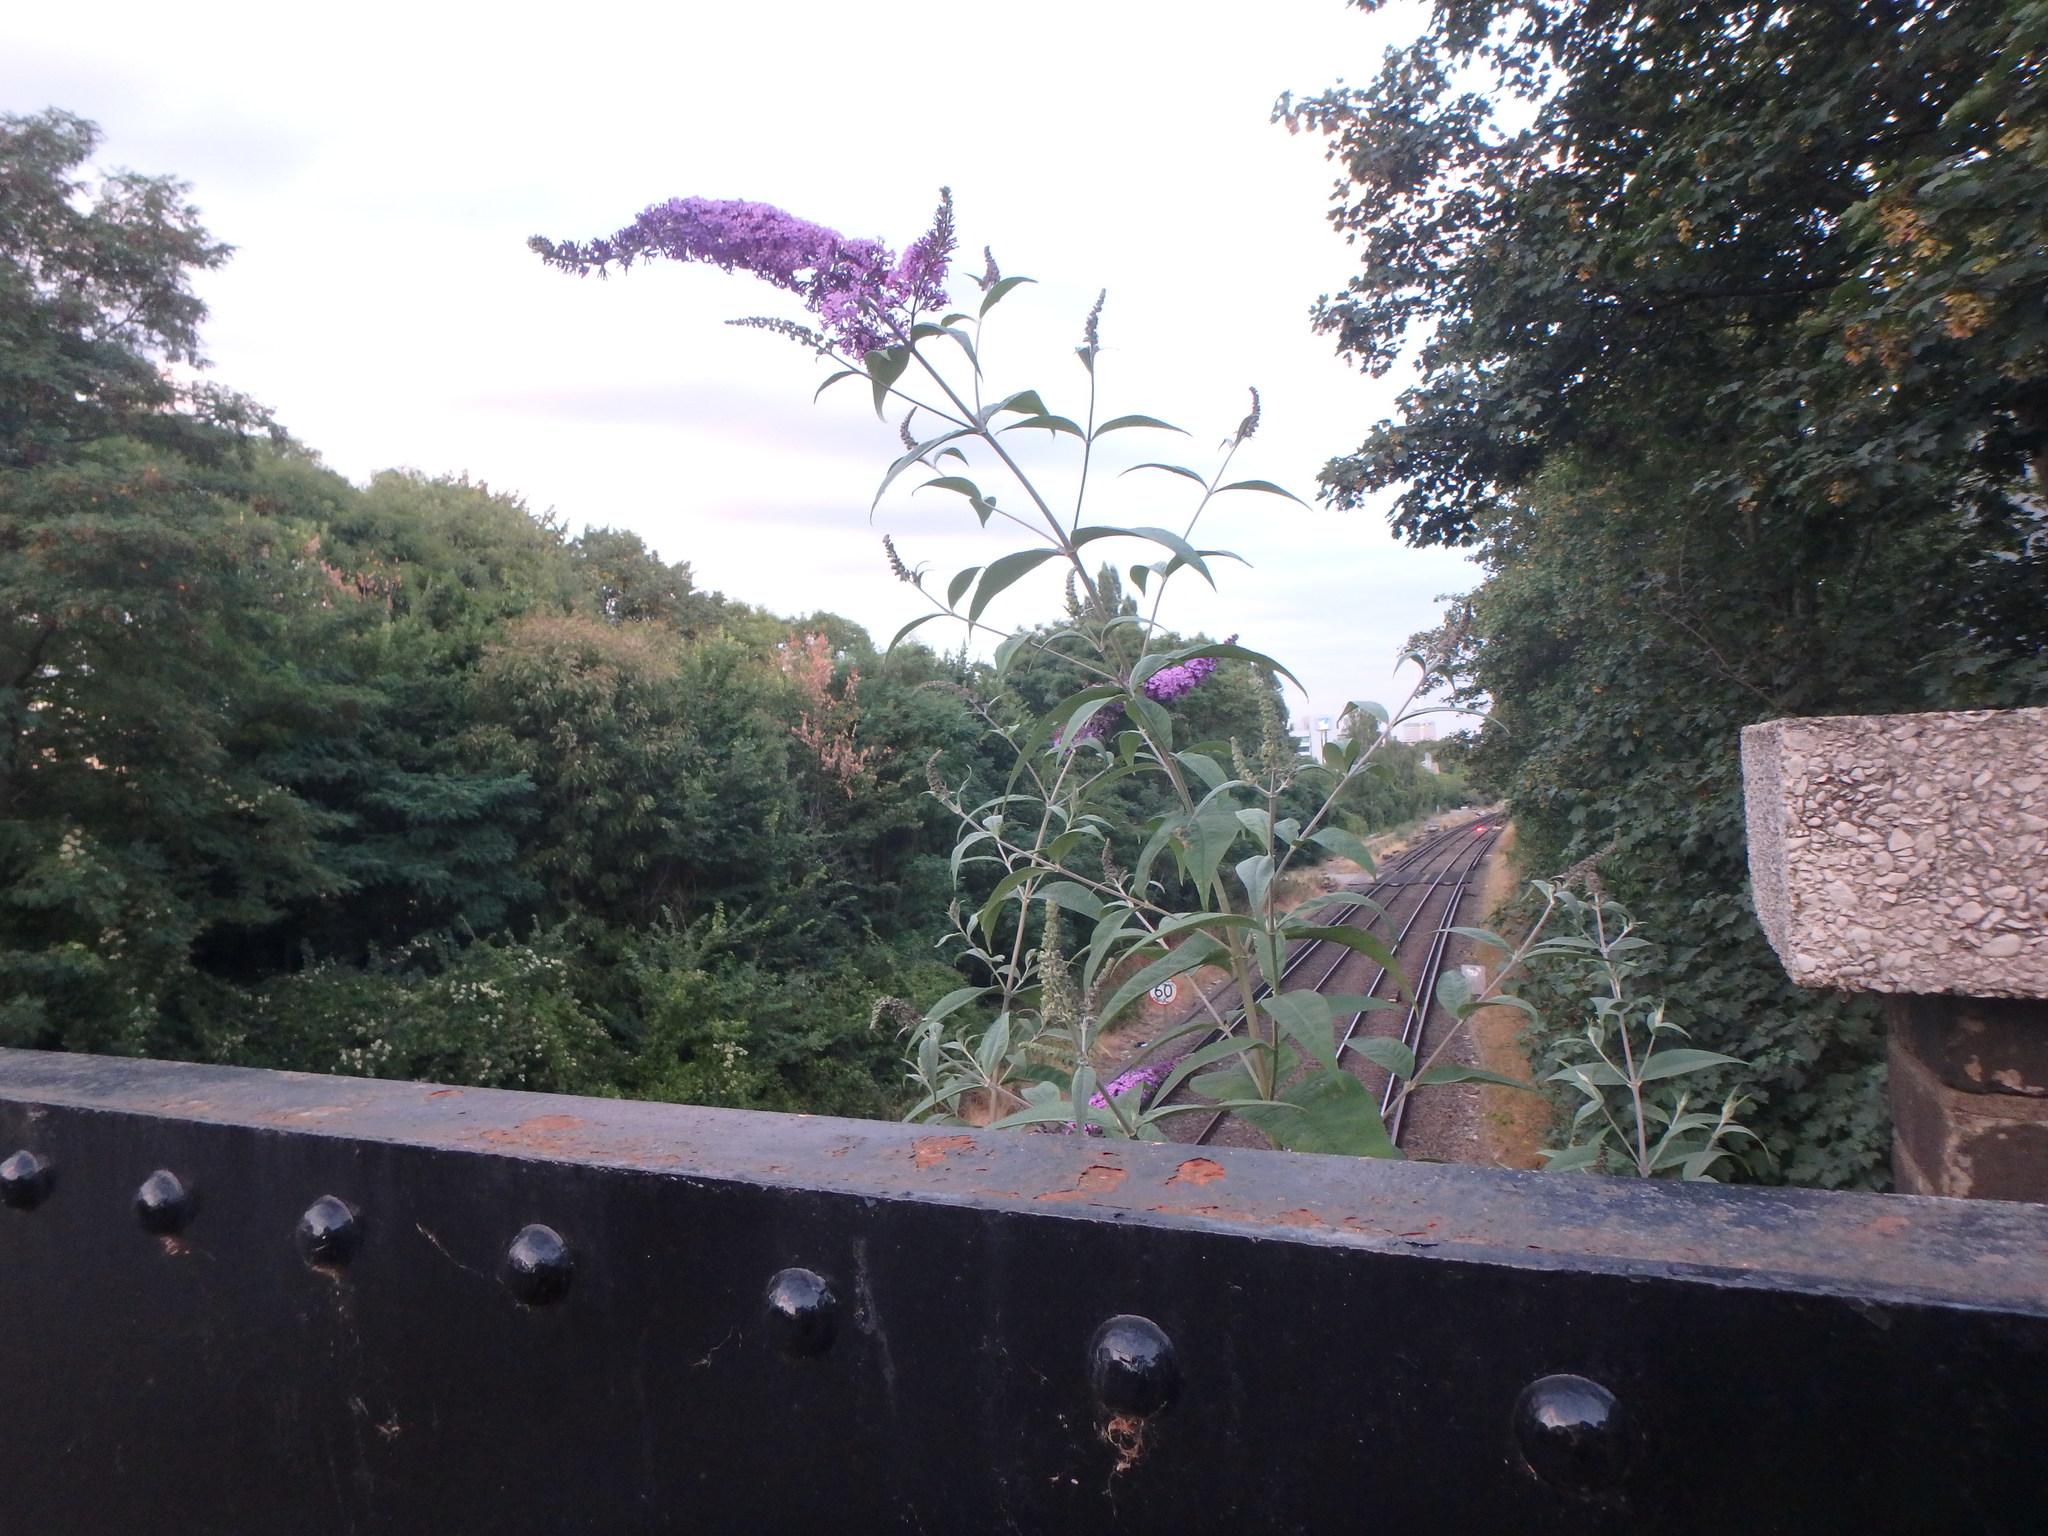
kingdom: Plantae
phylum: Tracheophyta
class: Magnoliopsida
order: Lamiales
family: Scrophulariaceae
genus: Buddleja
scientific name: Buddleja davidii
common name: Butterfly-bush
